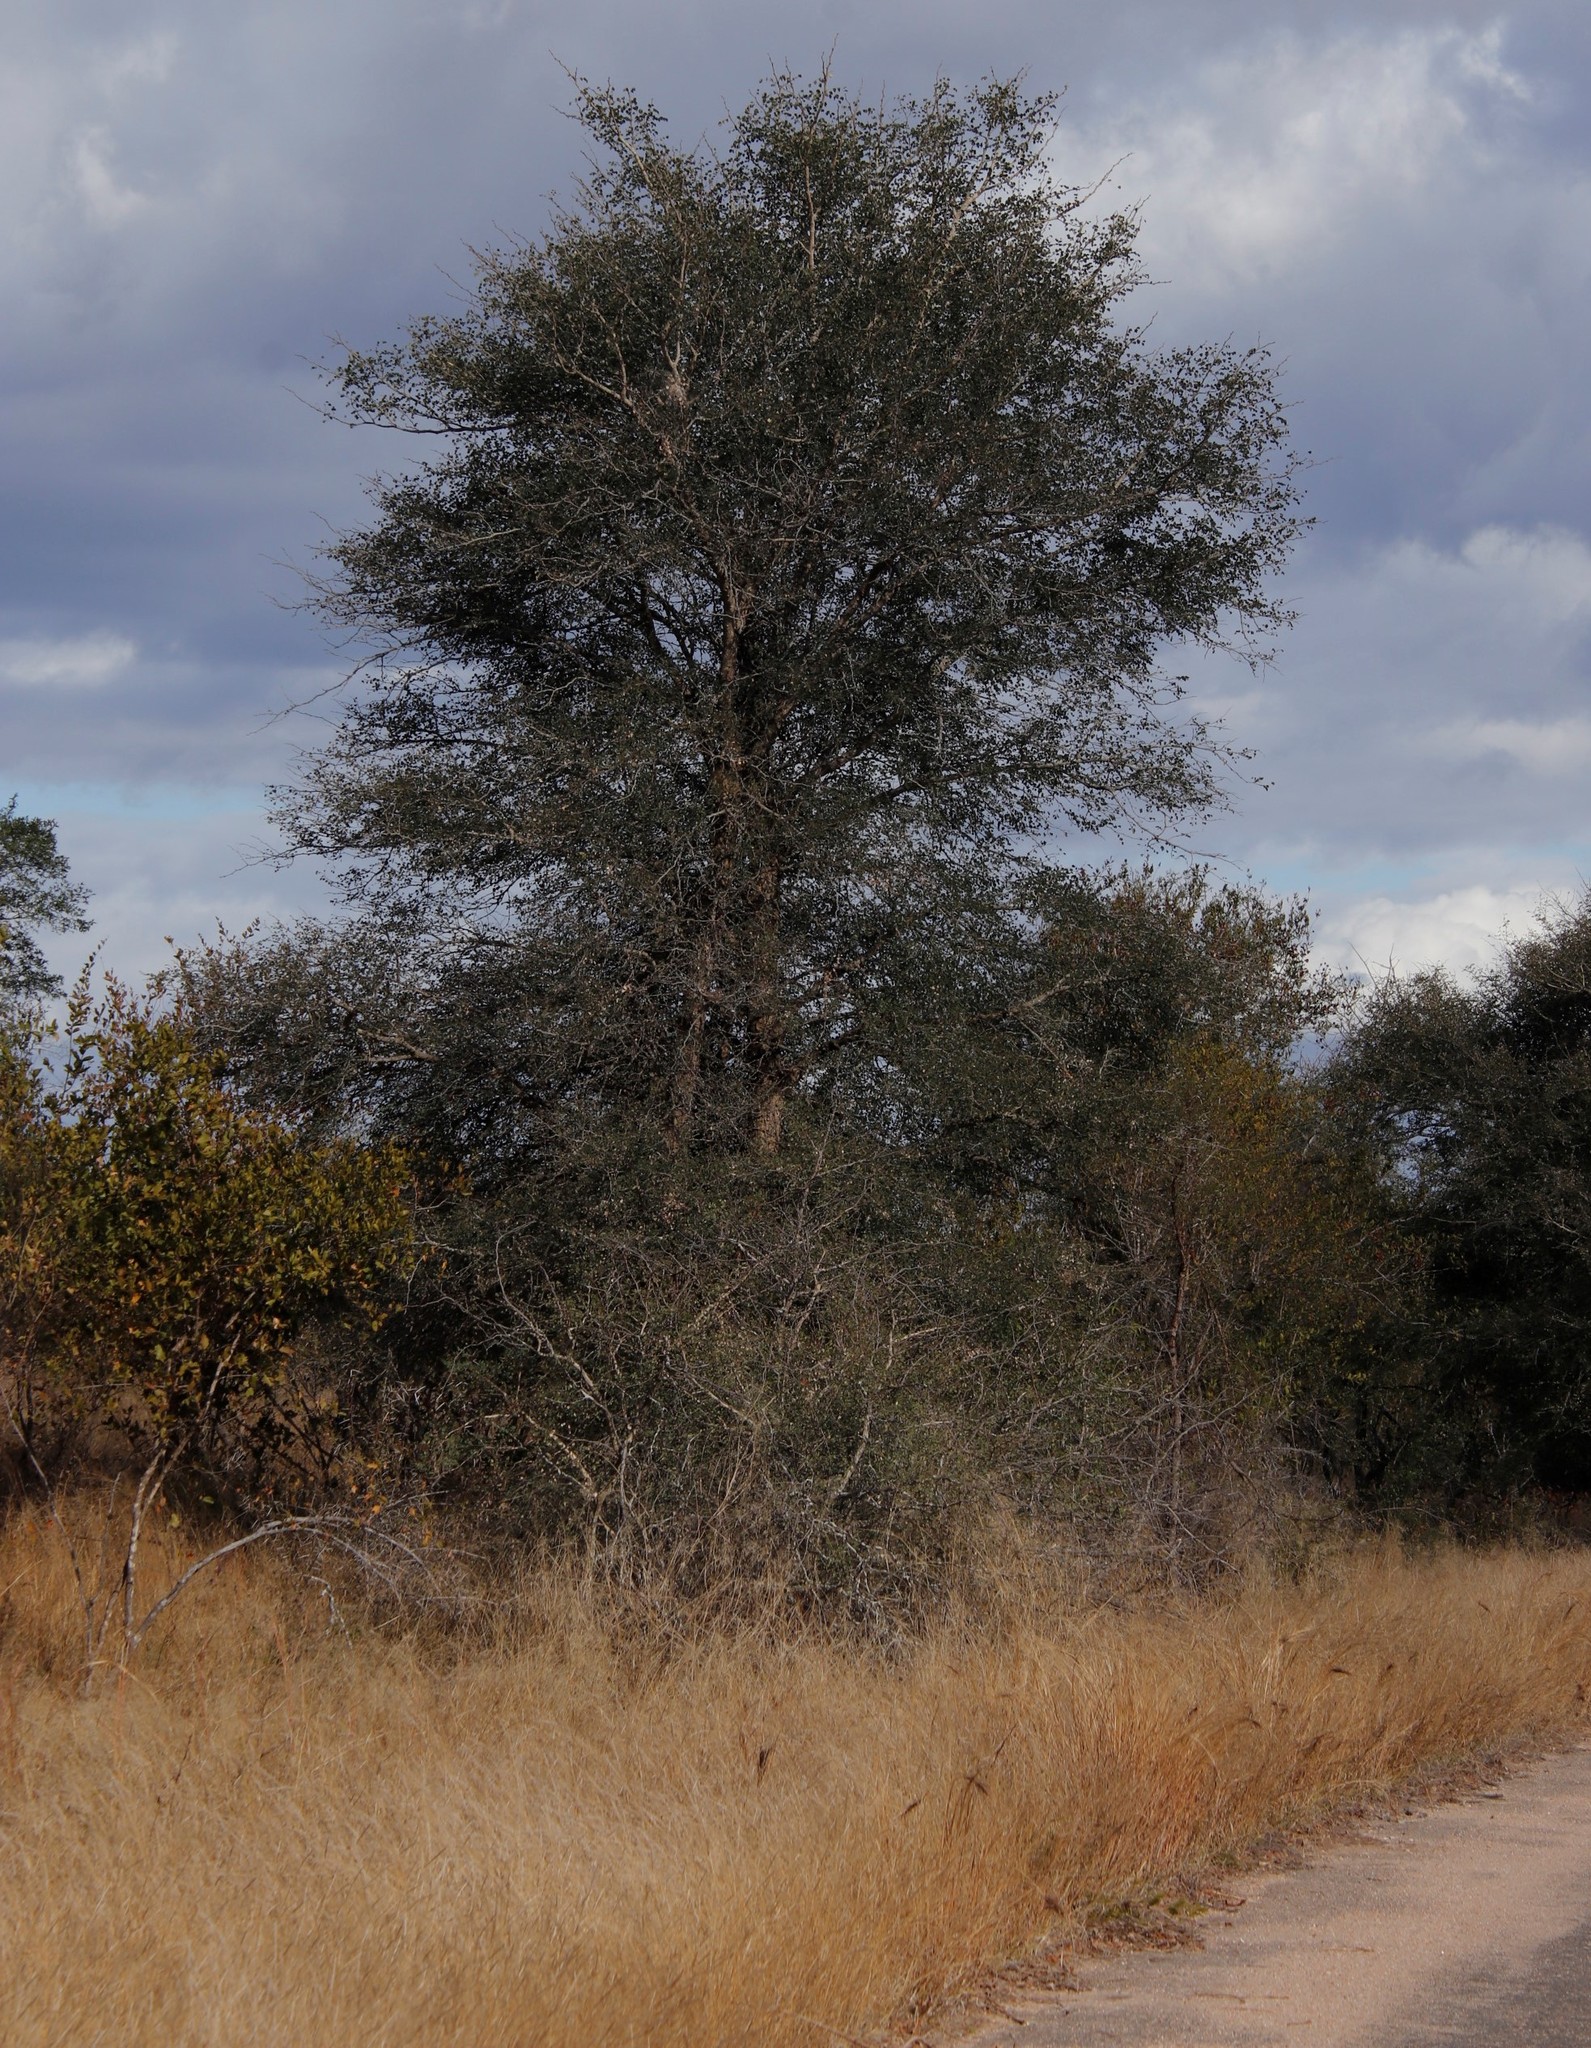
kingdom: Plantae
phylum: Tracheophyta
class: Magnoliopsida
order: Fabales
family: Fabaceae
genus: Senegalia
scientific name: Senegalia nigrescens
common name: Knobthorn
